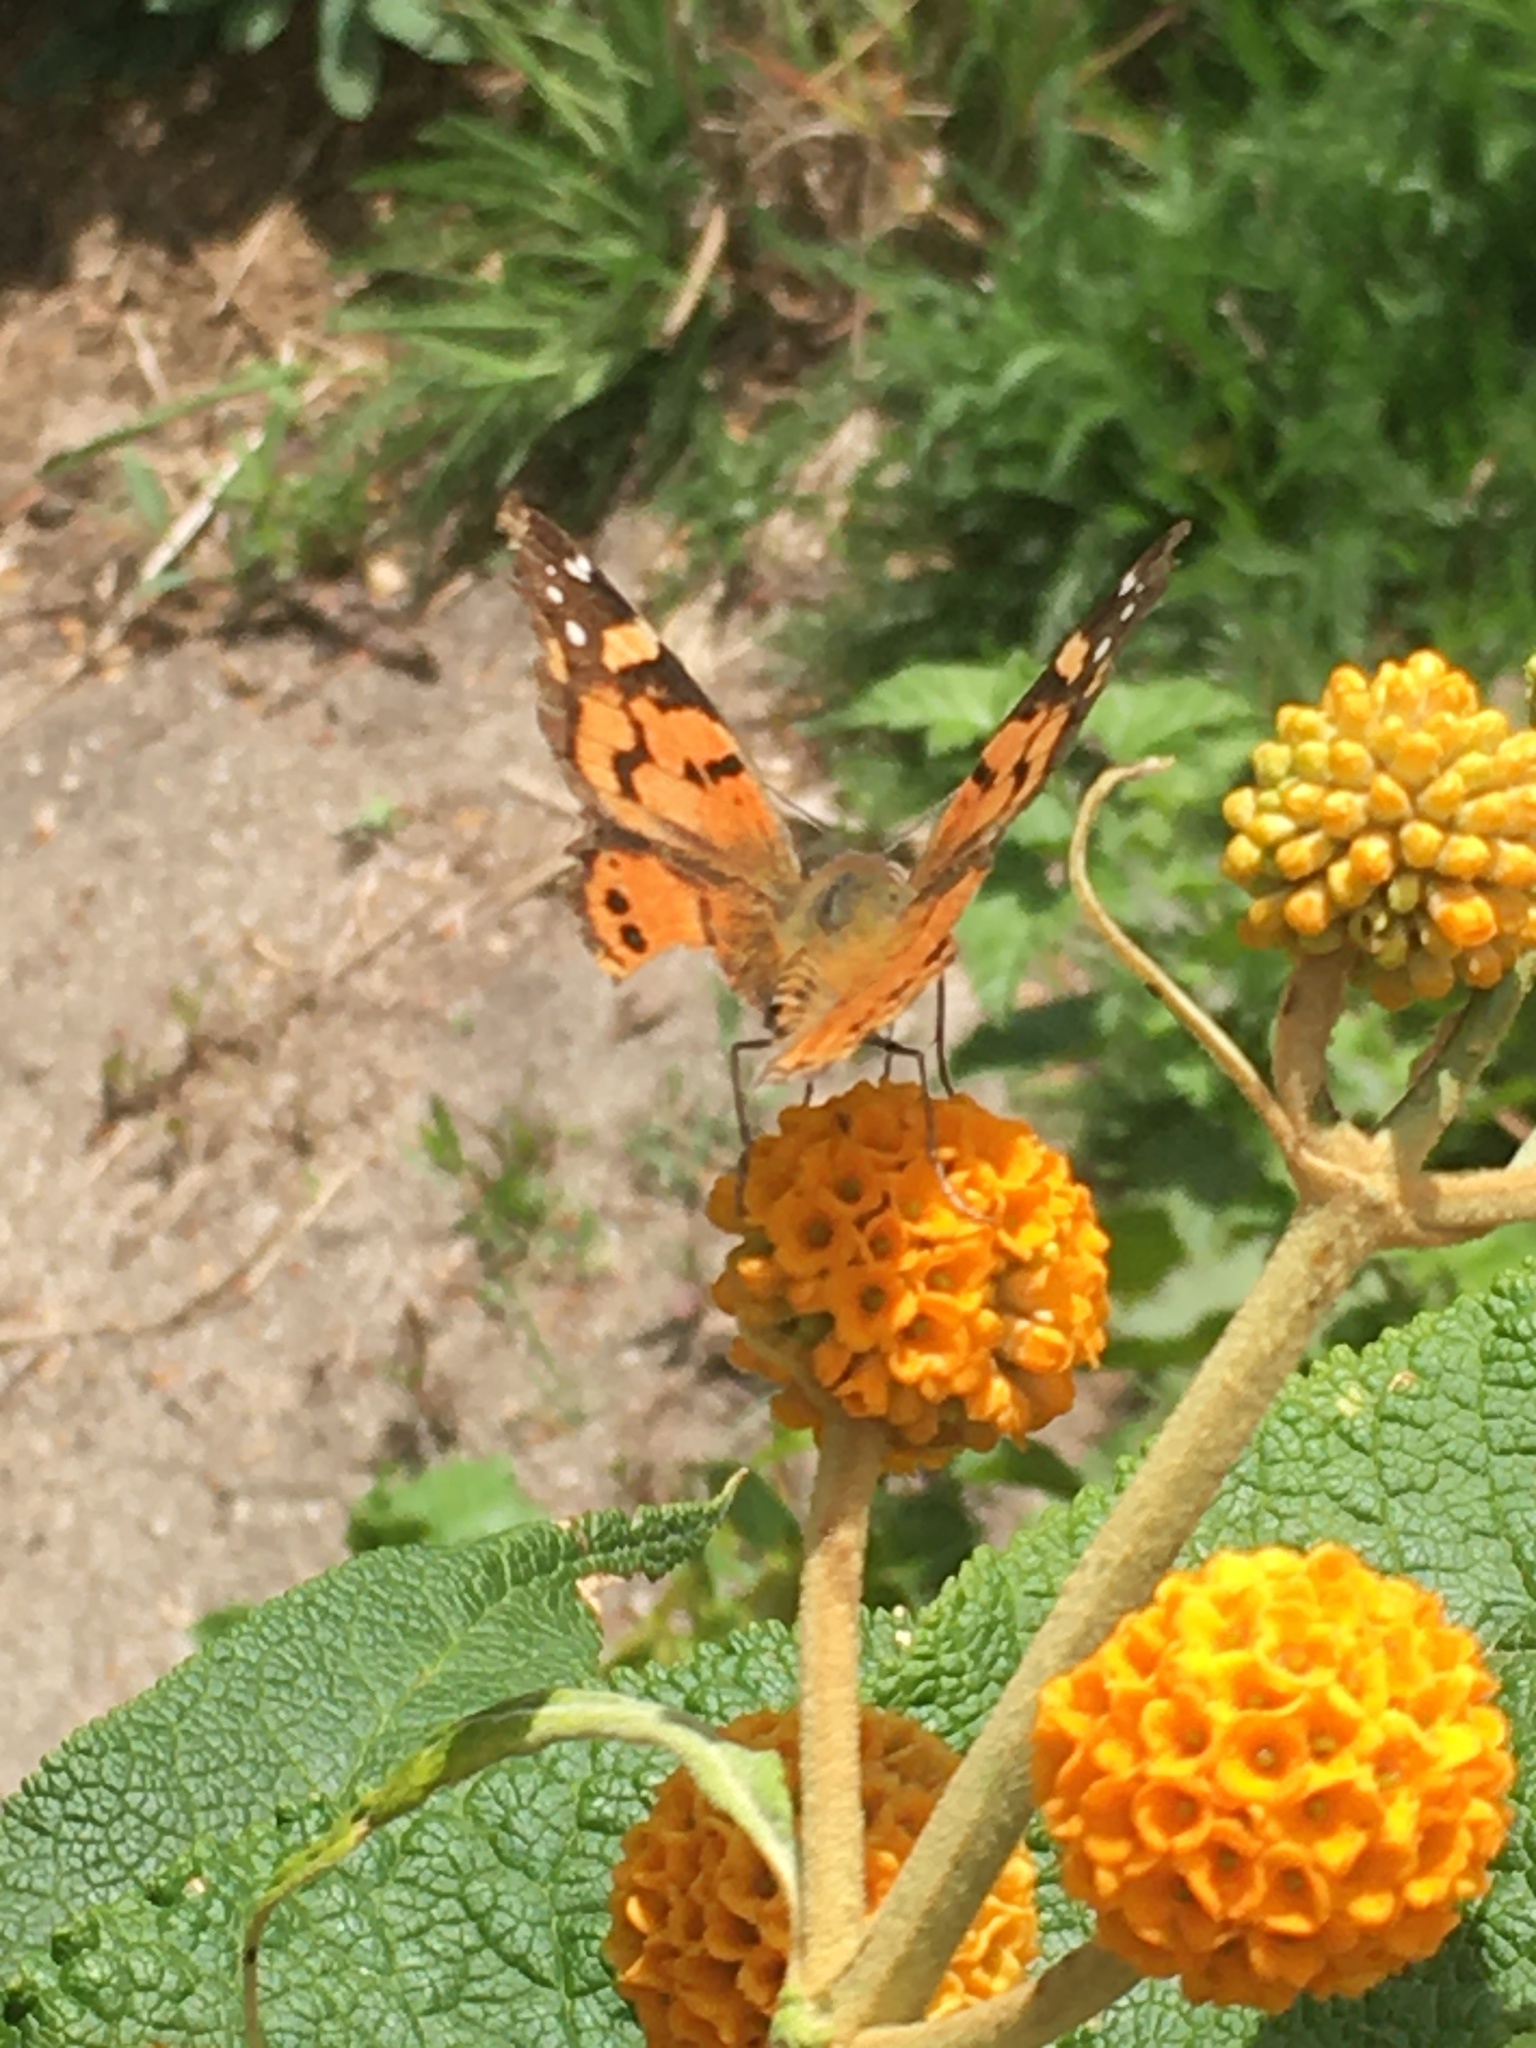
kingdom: Animalia
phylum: Arthropoda
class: Insecta
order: Lepidoptera
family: Nymphalidae
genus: Vanessa
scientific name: Vanessa carye
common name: Subtropical lady
